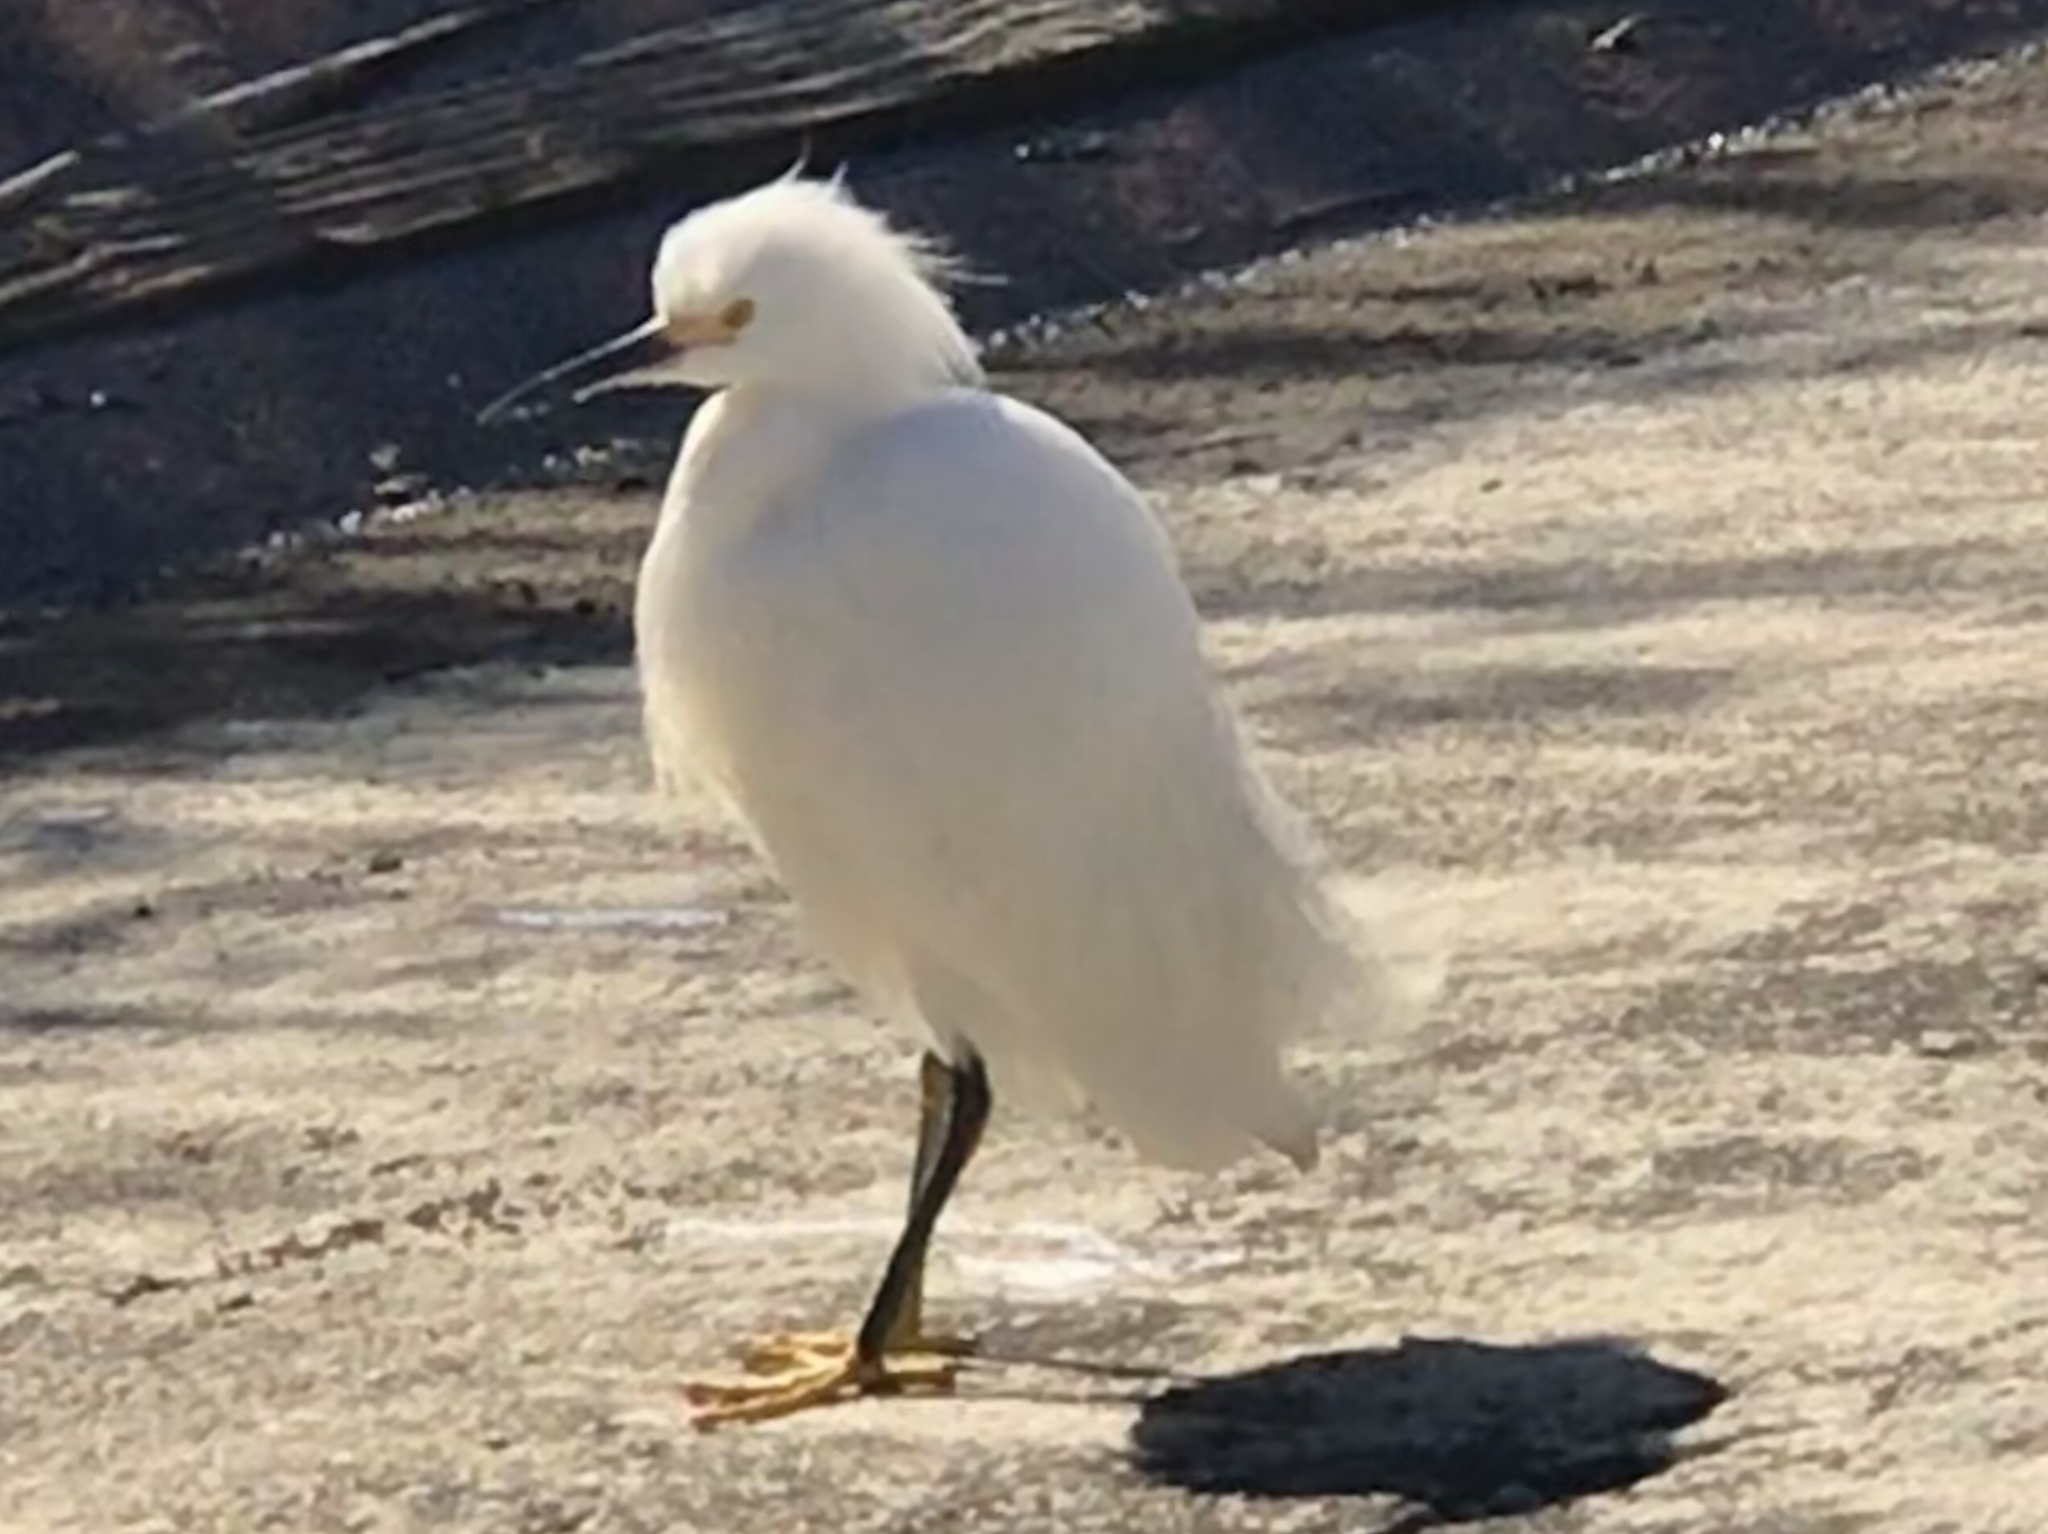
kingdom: Animalia
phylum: Chordata
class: Aves
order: Pelecaniformes
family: Ardeidae
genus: Egretta
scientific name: Egretta thula
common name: Snowy egret
